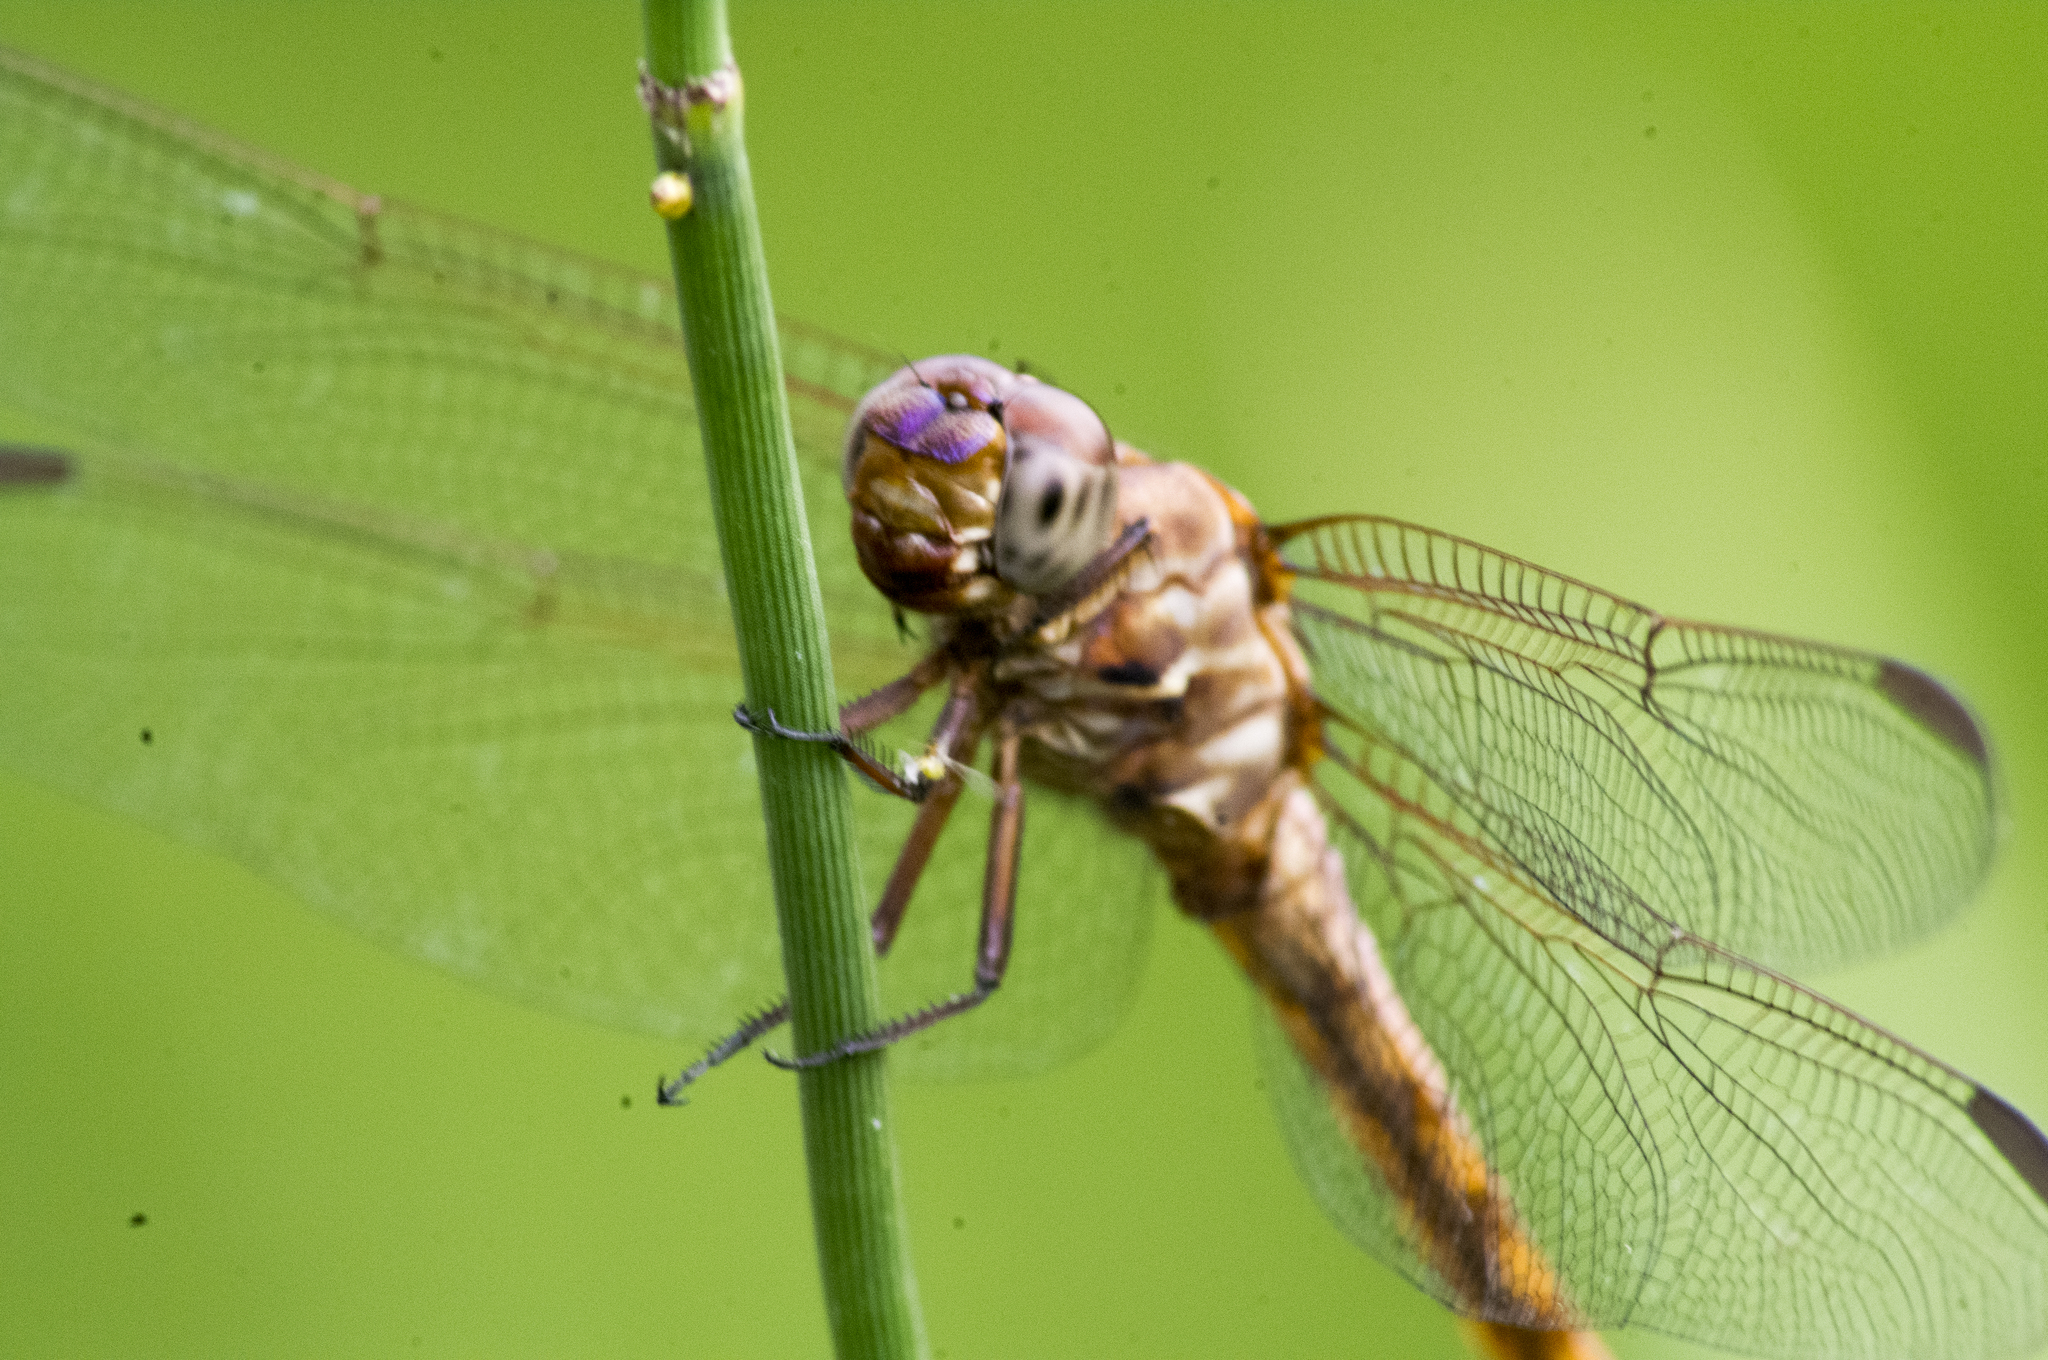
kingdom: Animalia
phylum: Arthropoda
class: Insecta
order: Odonata
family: Libellulidae
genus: Orthemis
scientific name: Orthemis ferruginea
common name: Roseate skimmer
